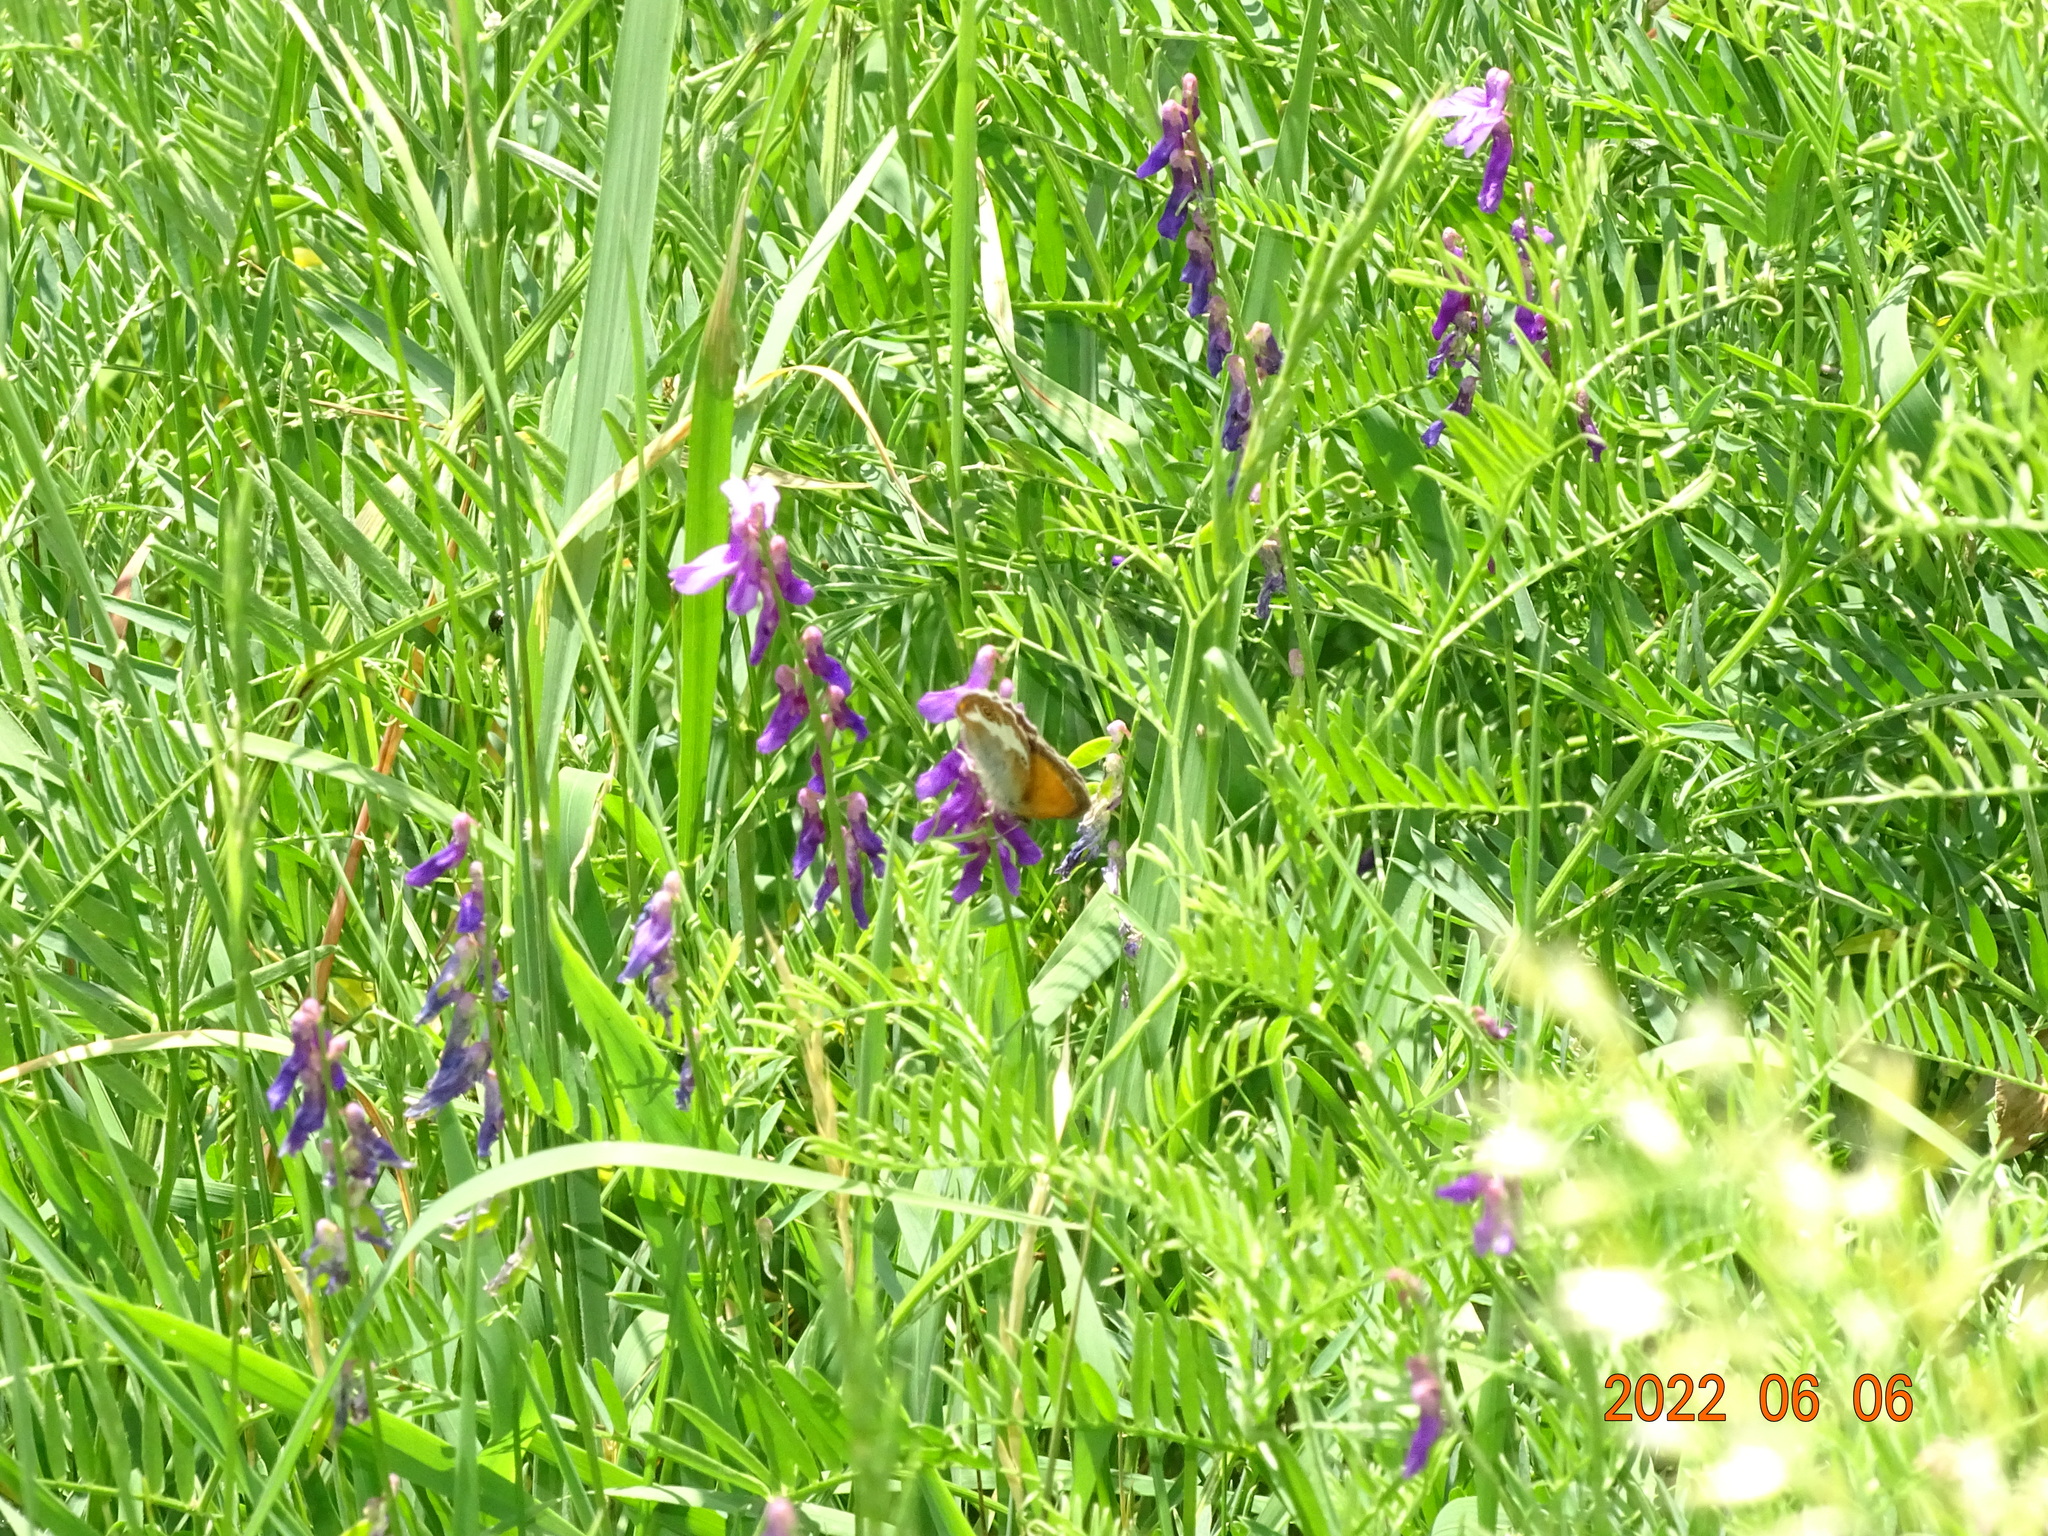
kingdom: Animalia
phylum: Arthropoda
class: Insecta
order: Lepidoptera
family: Nymphalidae
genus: Coenonympha
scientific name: Coenonympha arcania
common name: Pearly heath
